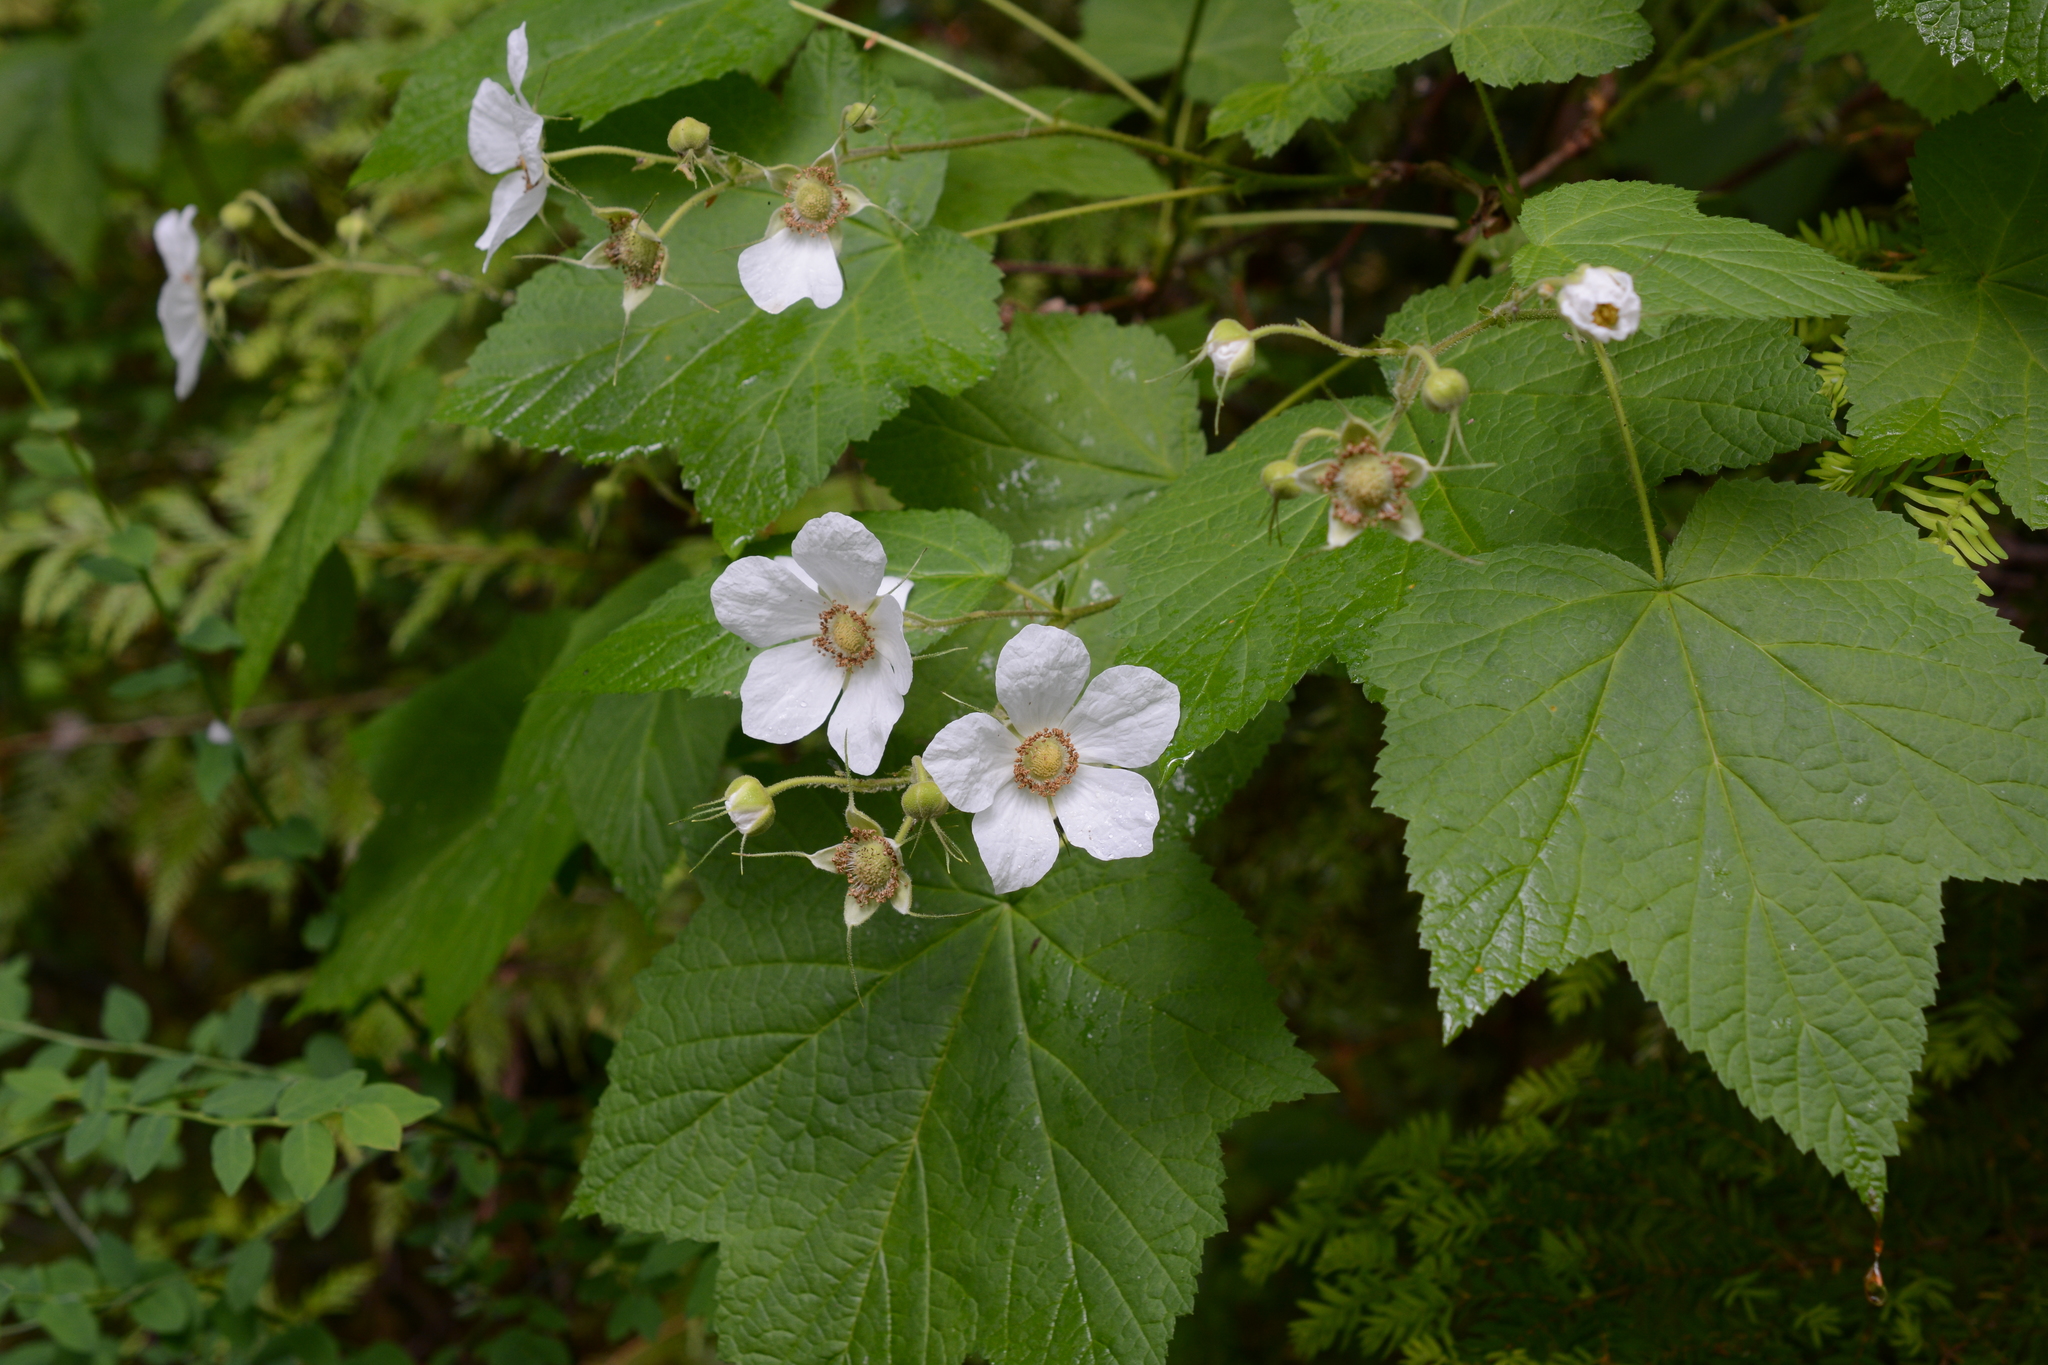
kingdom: Plantae
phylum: Tracheophyta
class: Magnoliopsida
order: Rosales
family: Rosaceae
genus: Rubus
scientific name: Rubus parviflorus
